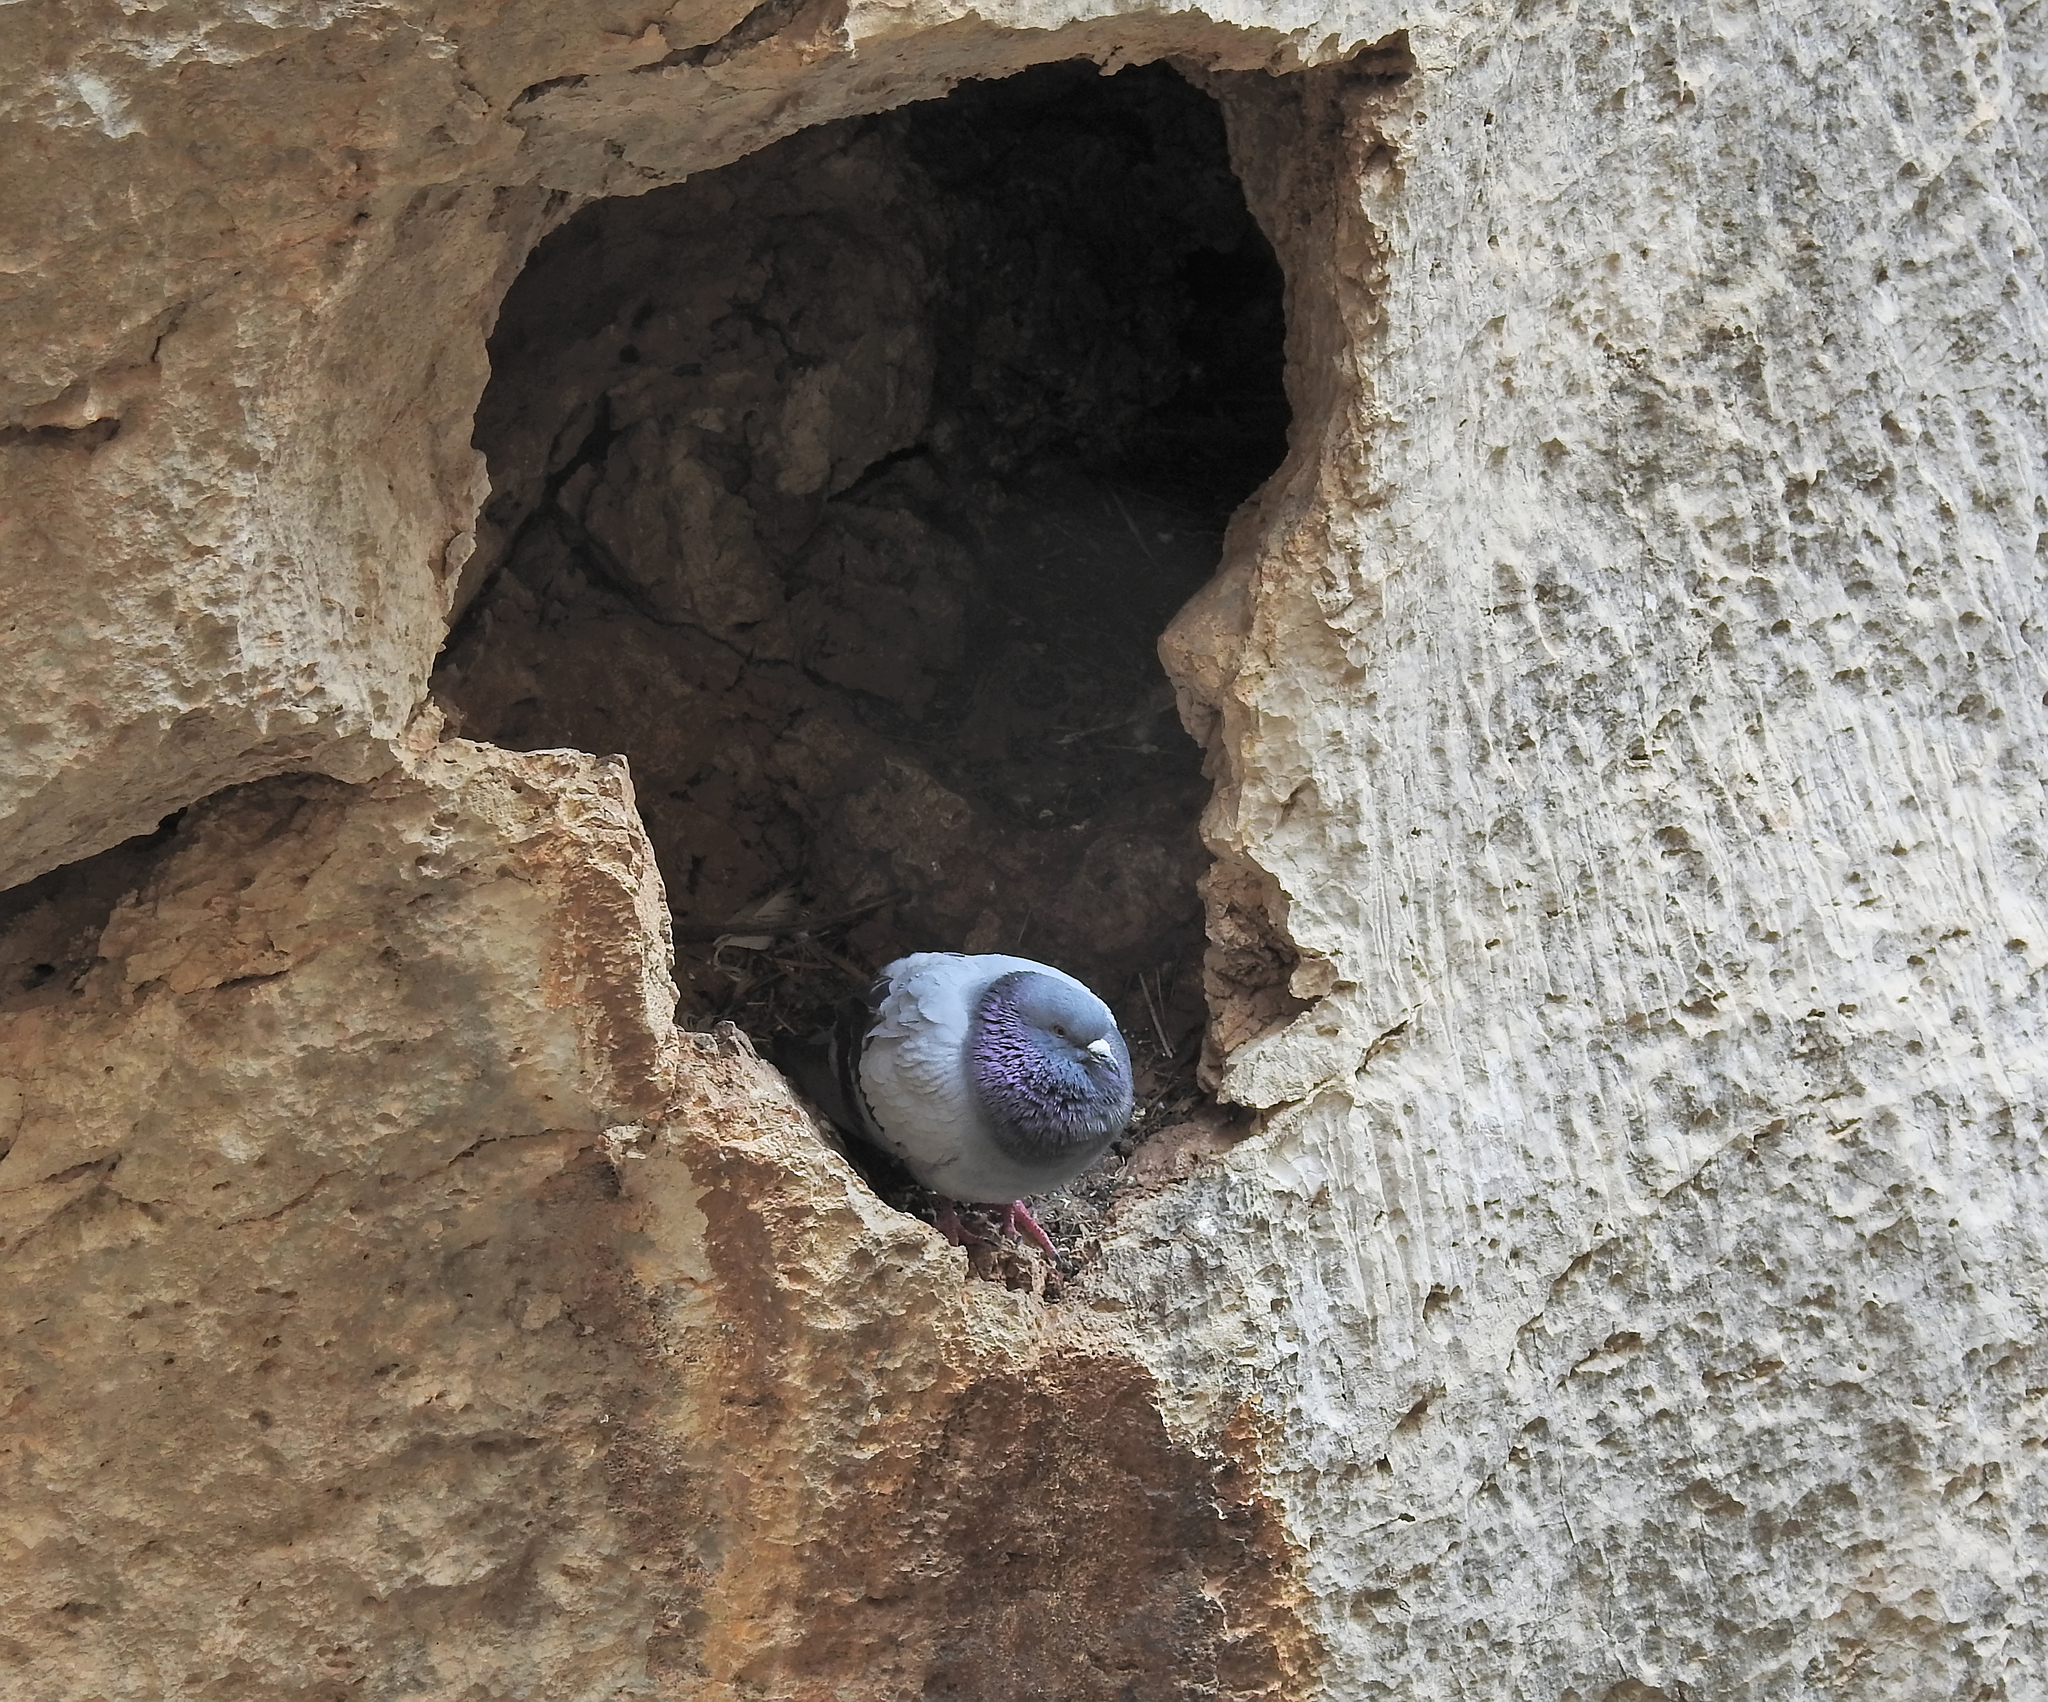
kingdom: Animalia
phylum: Chordata
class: Aves
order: Columbiformes
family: Columbidae
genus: Columba
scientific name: Columba livia
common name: Rock pigeon
